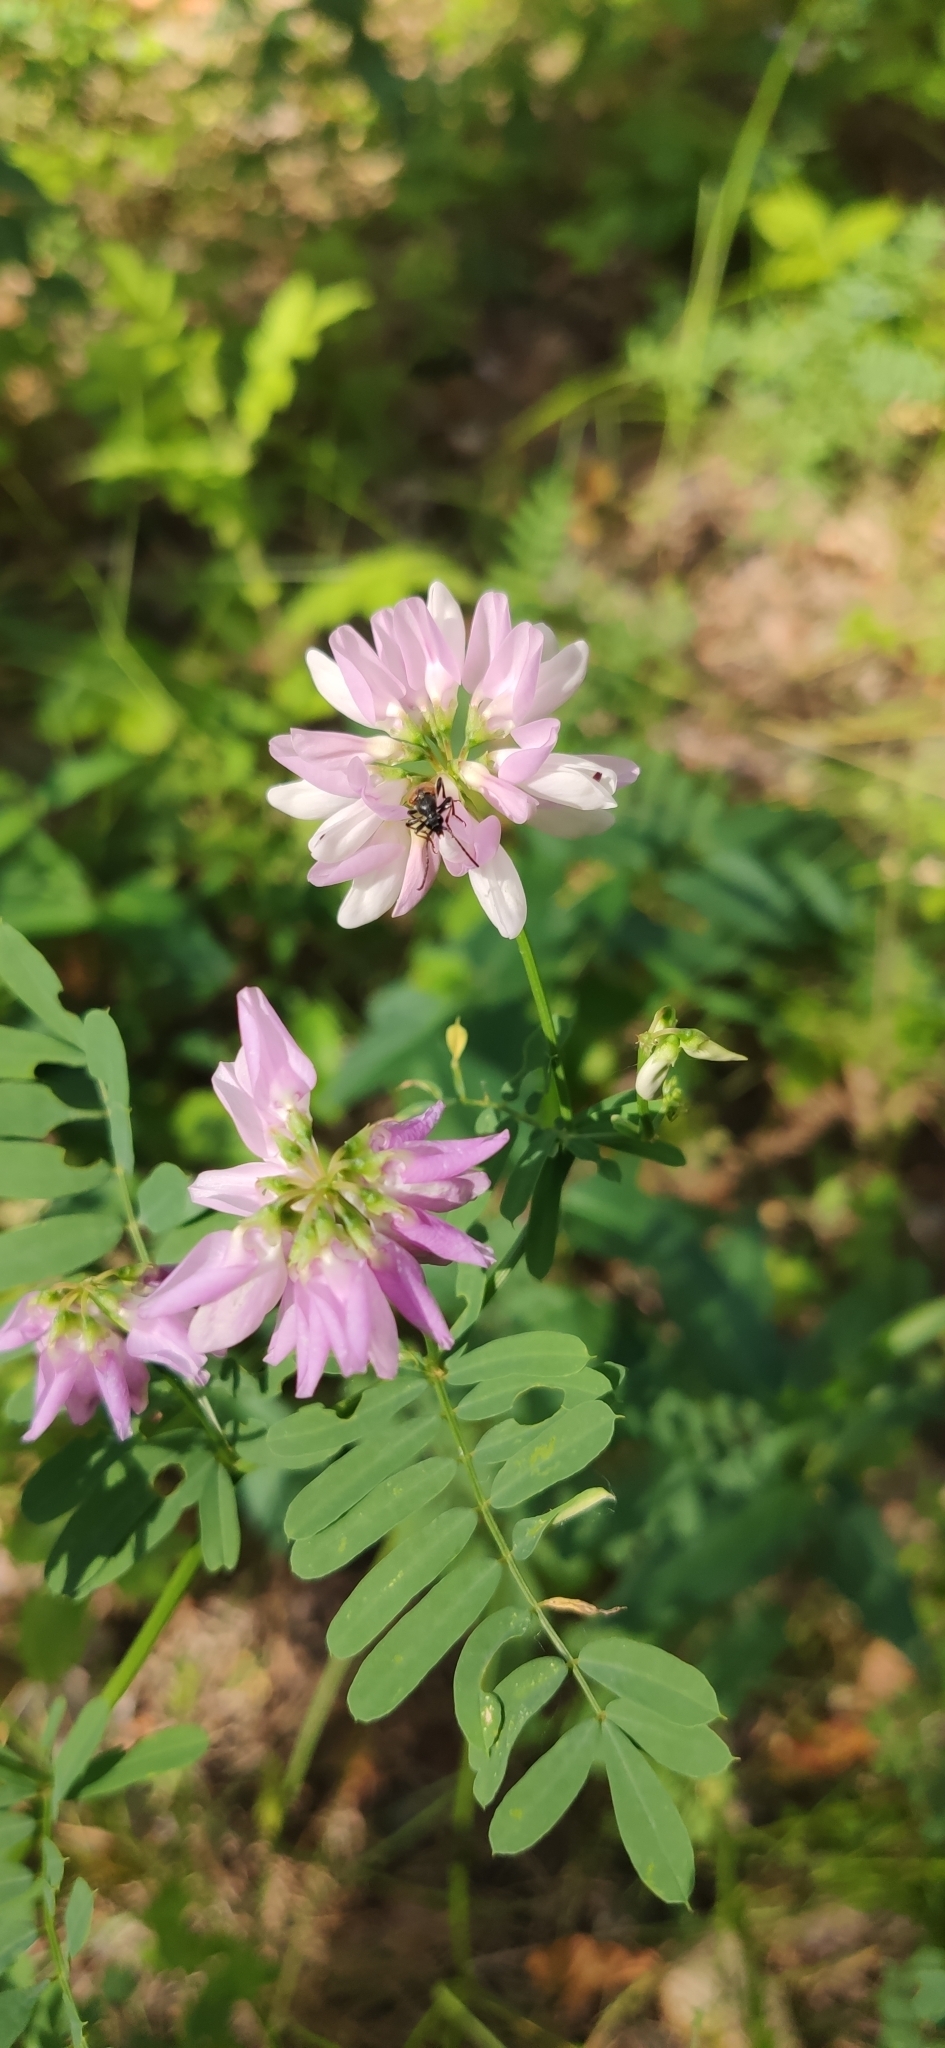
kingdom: Plantae
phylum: Tracheophyta
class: Magnoliopsida
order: Fabales
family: Fabaceae
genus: Coronilla
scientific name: Coronilla varia
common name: Crownvetch
